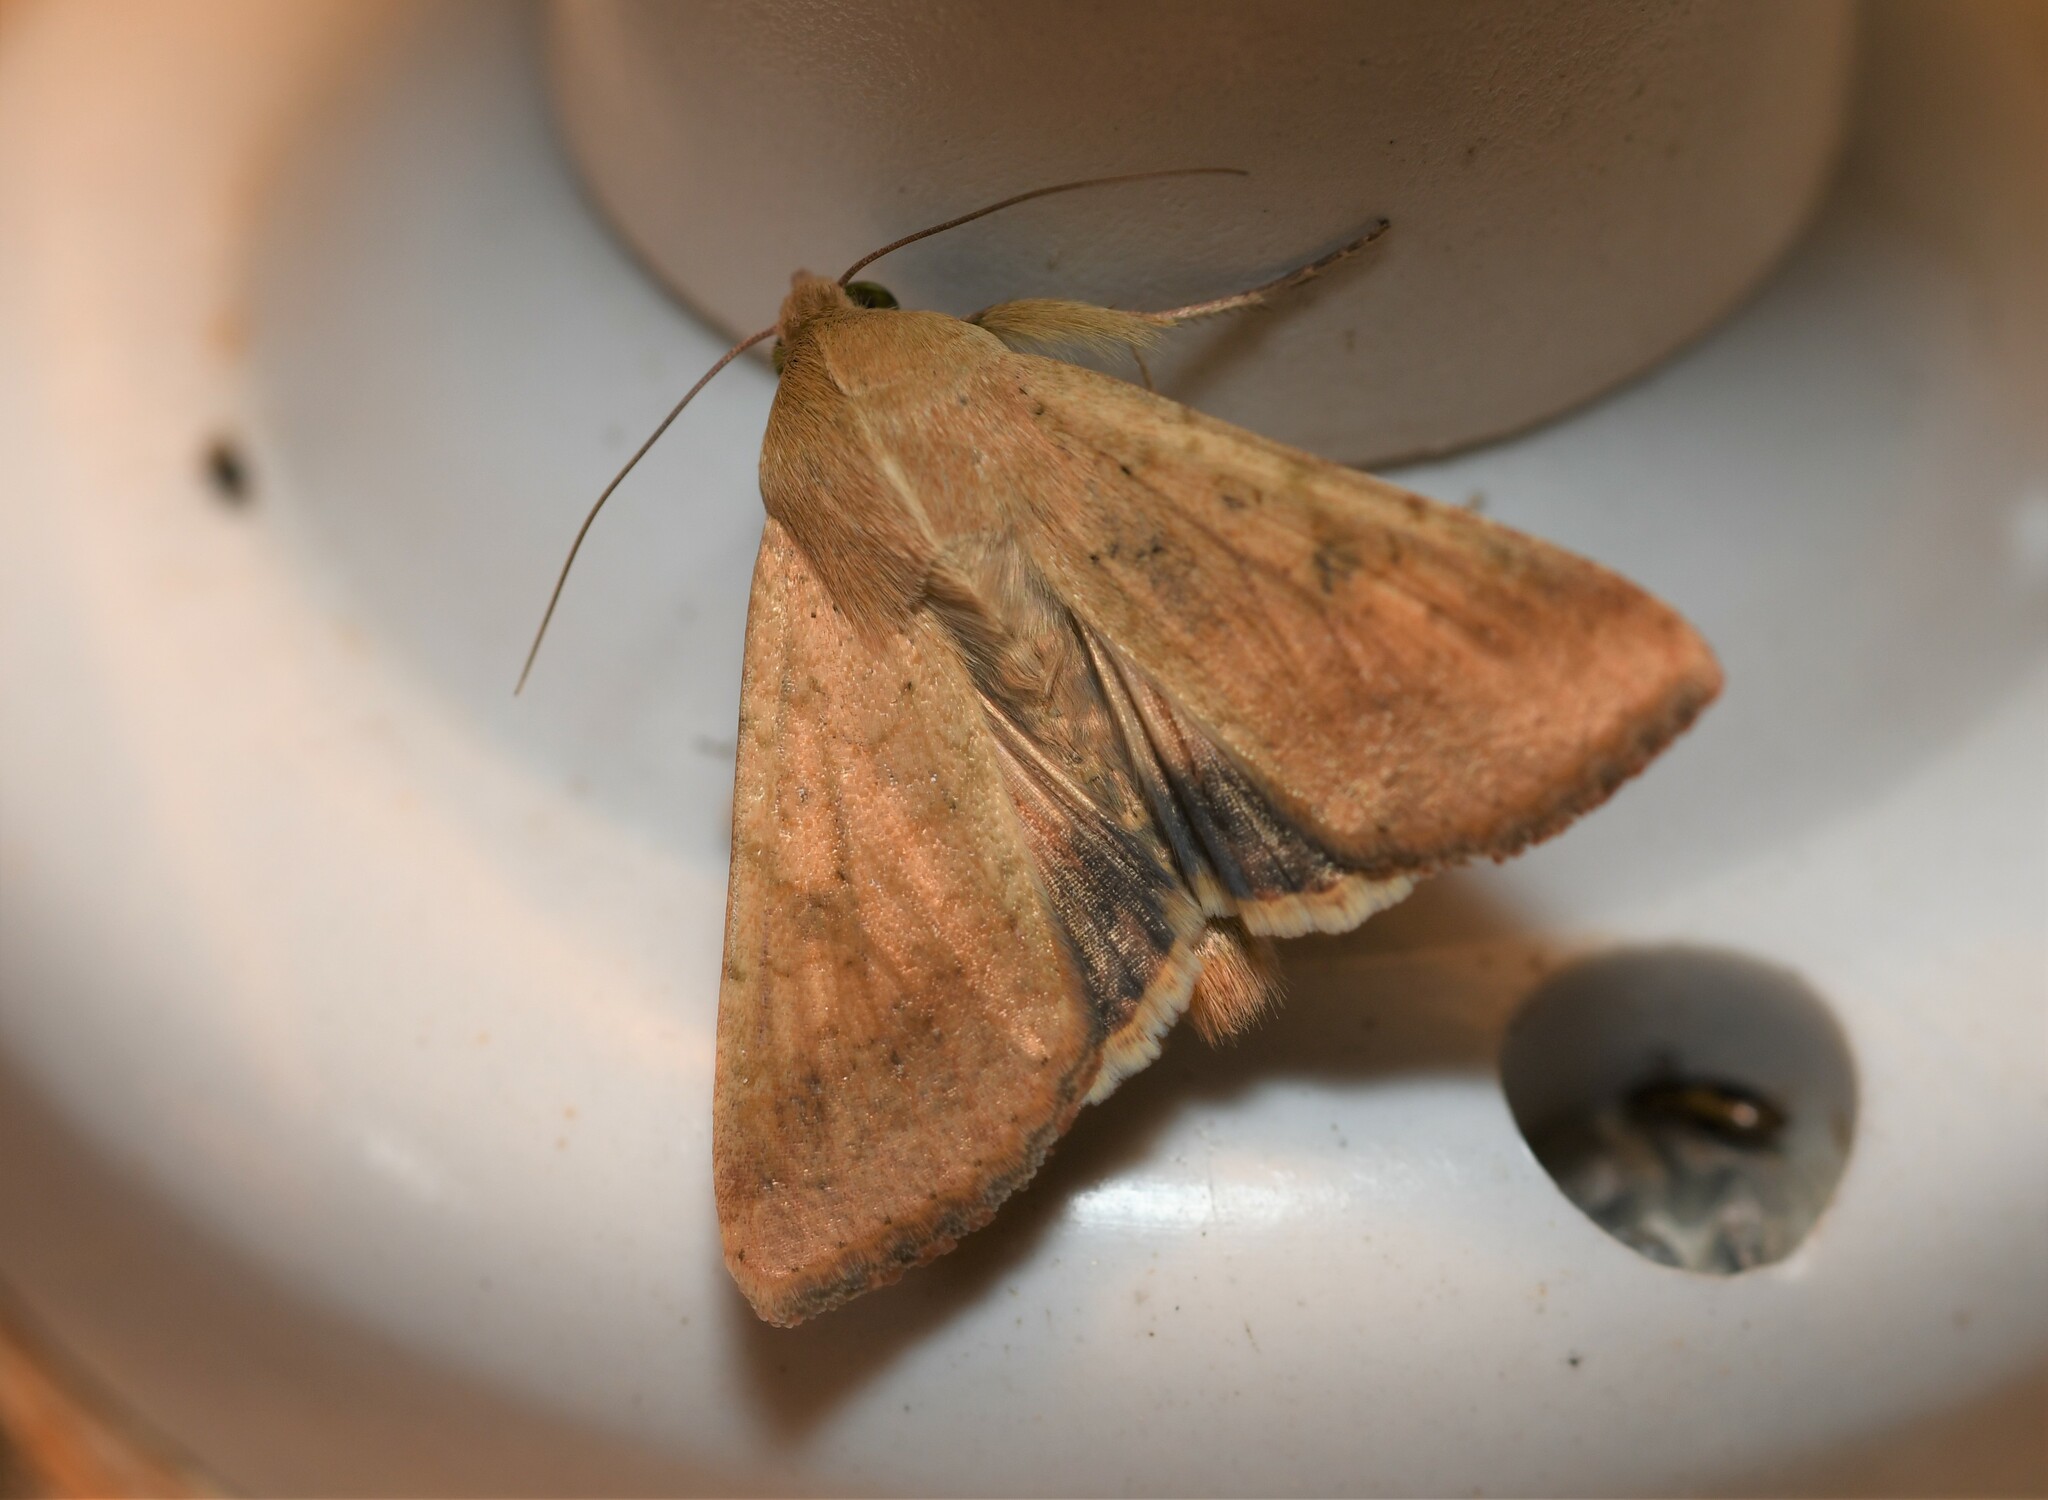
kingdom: Animalia
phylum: Arthropoda
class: Insecta
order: Lepidoptera
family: Noctuidae
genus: Helicoverpa
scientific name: Helicoverpa armigera
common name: Cotton bollworm
